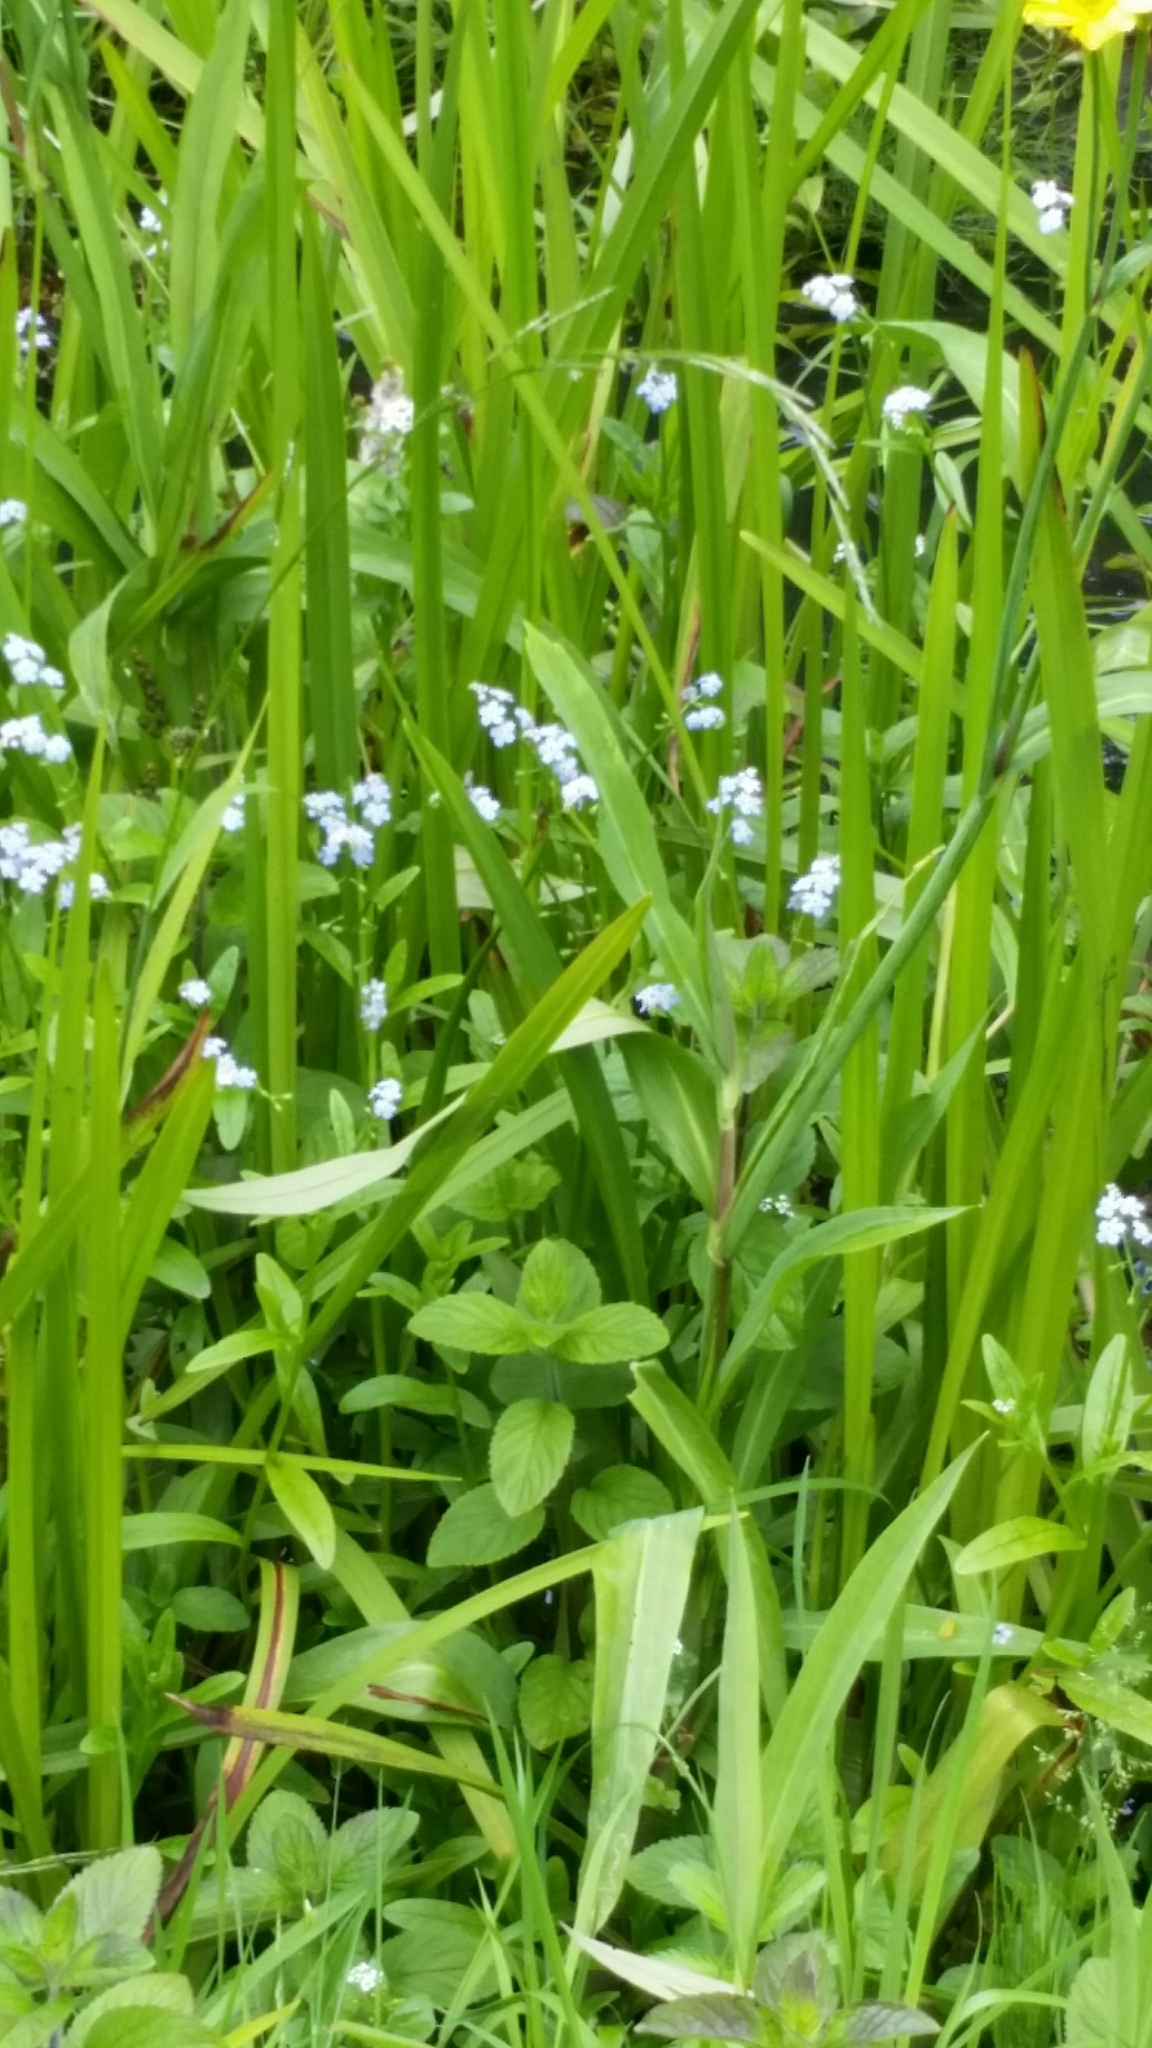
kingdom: Plantae
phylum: Tracheophyta
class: Magnoliopsida
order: Boraginales
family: Boraginaceae
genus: Myosotis
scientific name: Myosotis scorpioides
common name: Water forget-me-not
